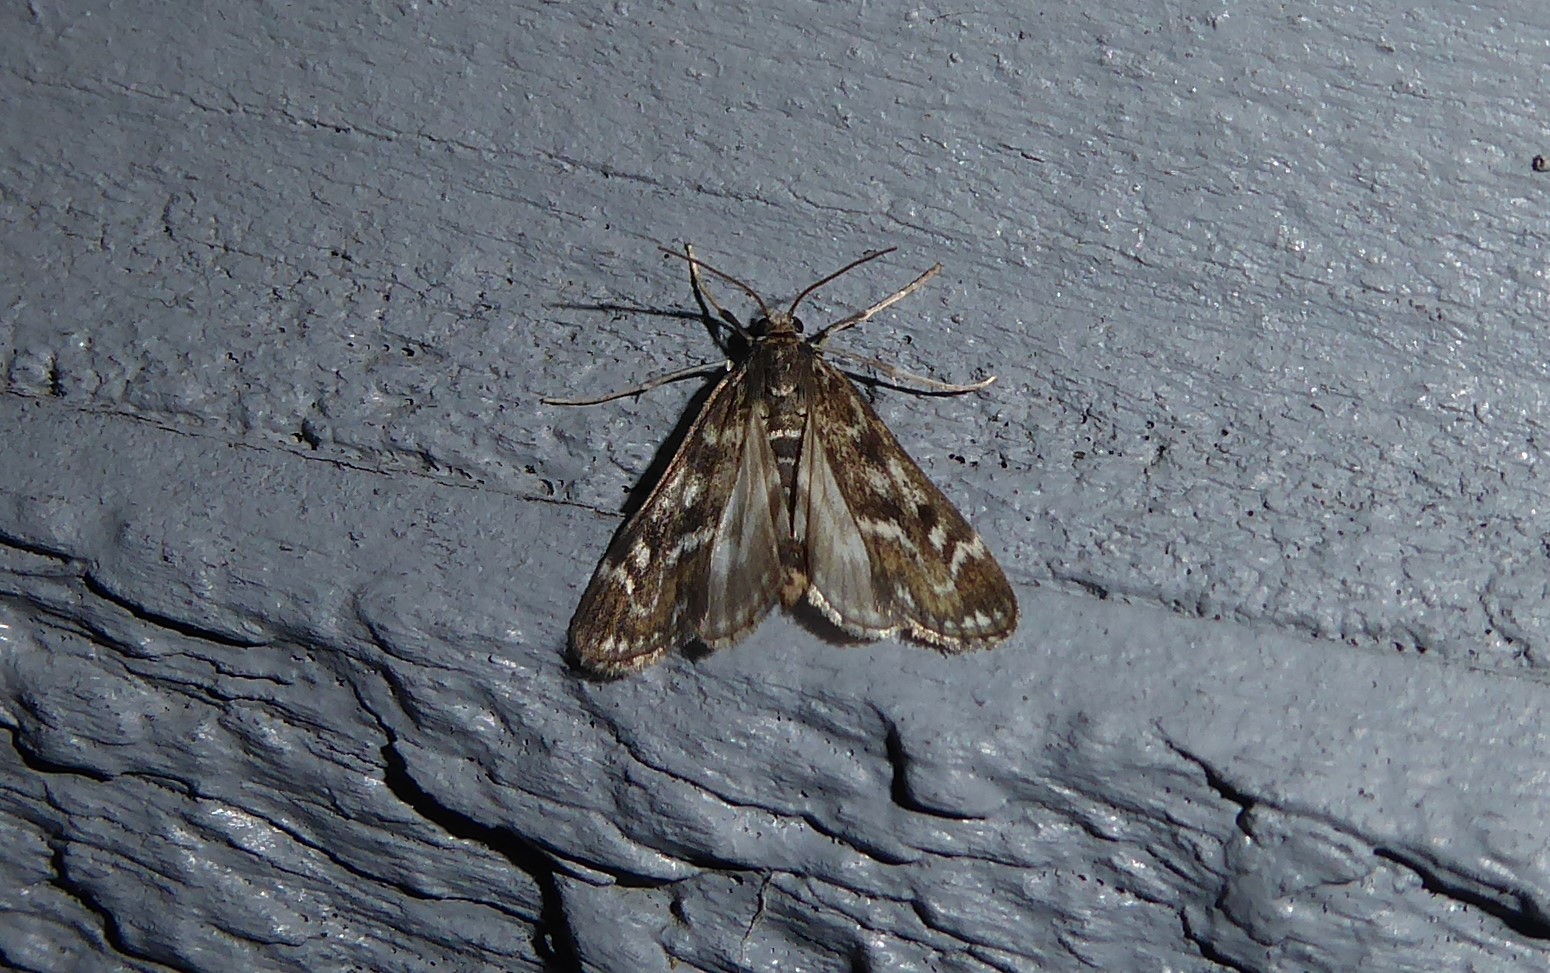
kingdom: Animalia
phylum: Arthropoda
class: Insecta
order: Lepidoptera
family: Crambidae
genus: Hygraula
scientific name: Hygraula nitens
